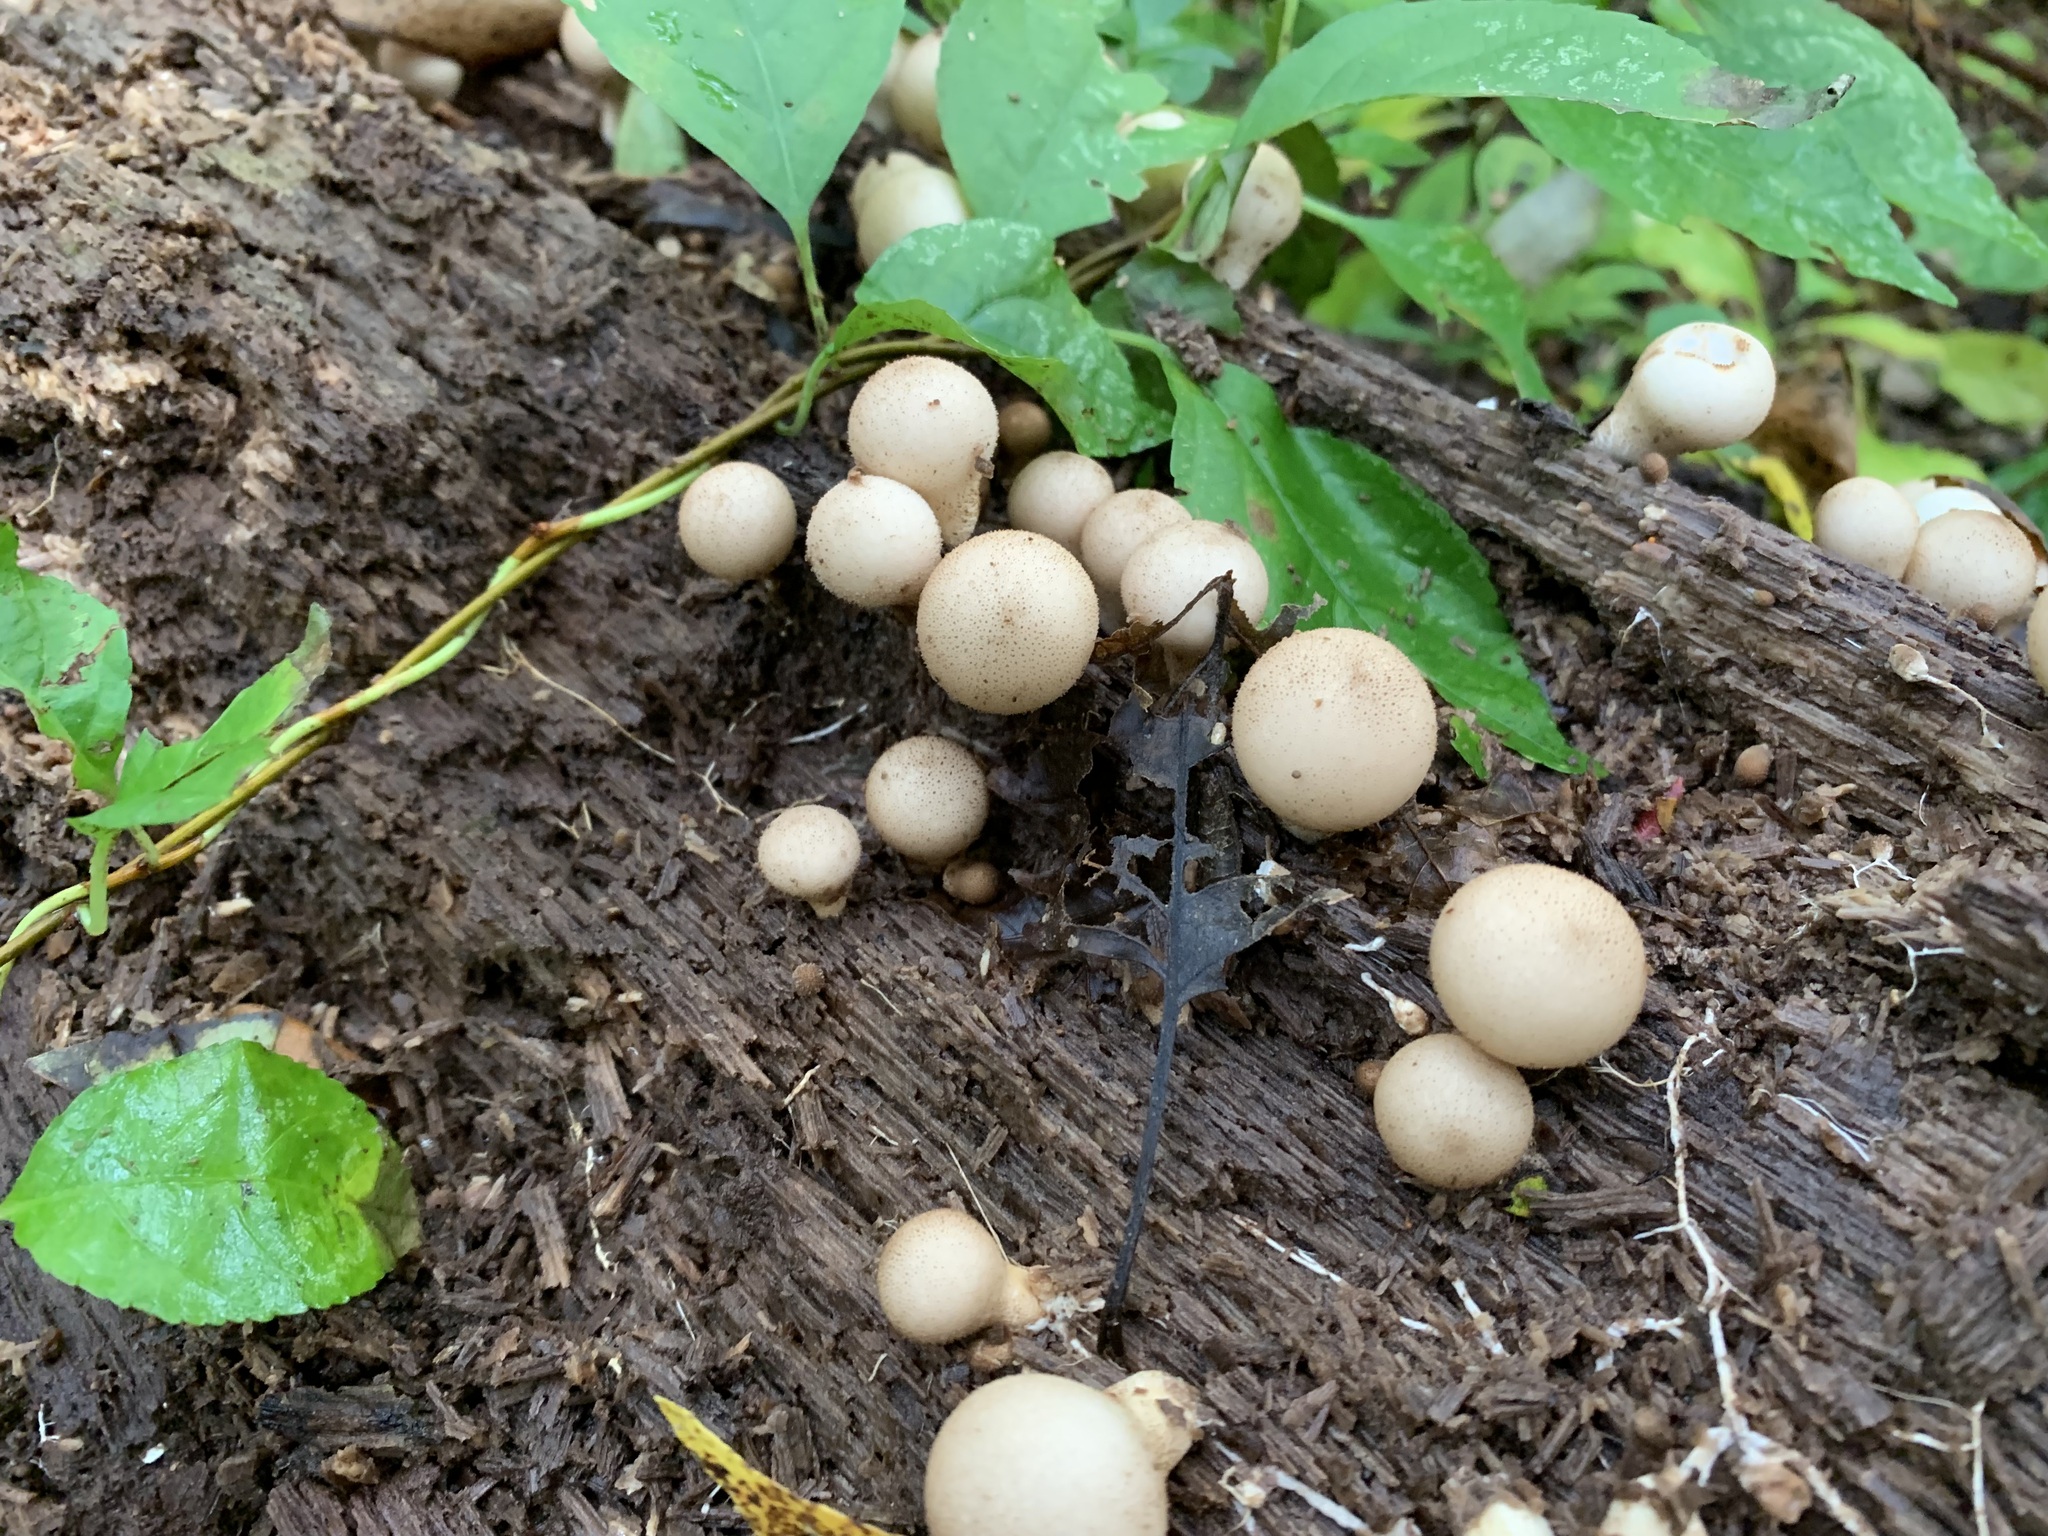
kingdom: Fungi
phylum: Basidiomycota
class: Agaricomycetes
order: Agaricales
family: Lycoperdaceae
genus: Apioperdon
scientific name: Apioperdon pyriforme
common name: Pear-shaped puffball
